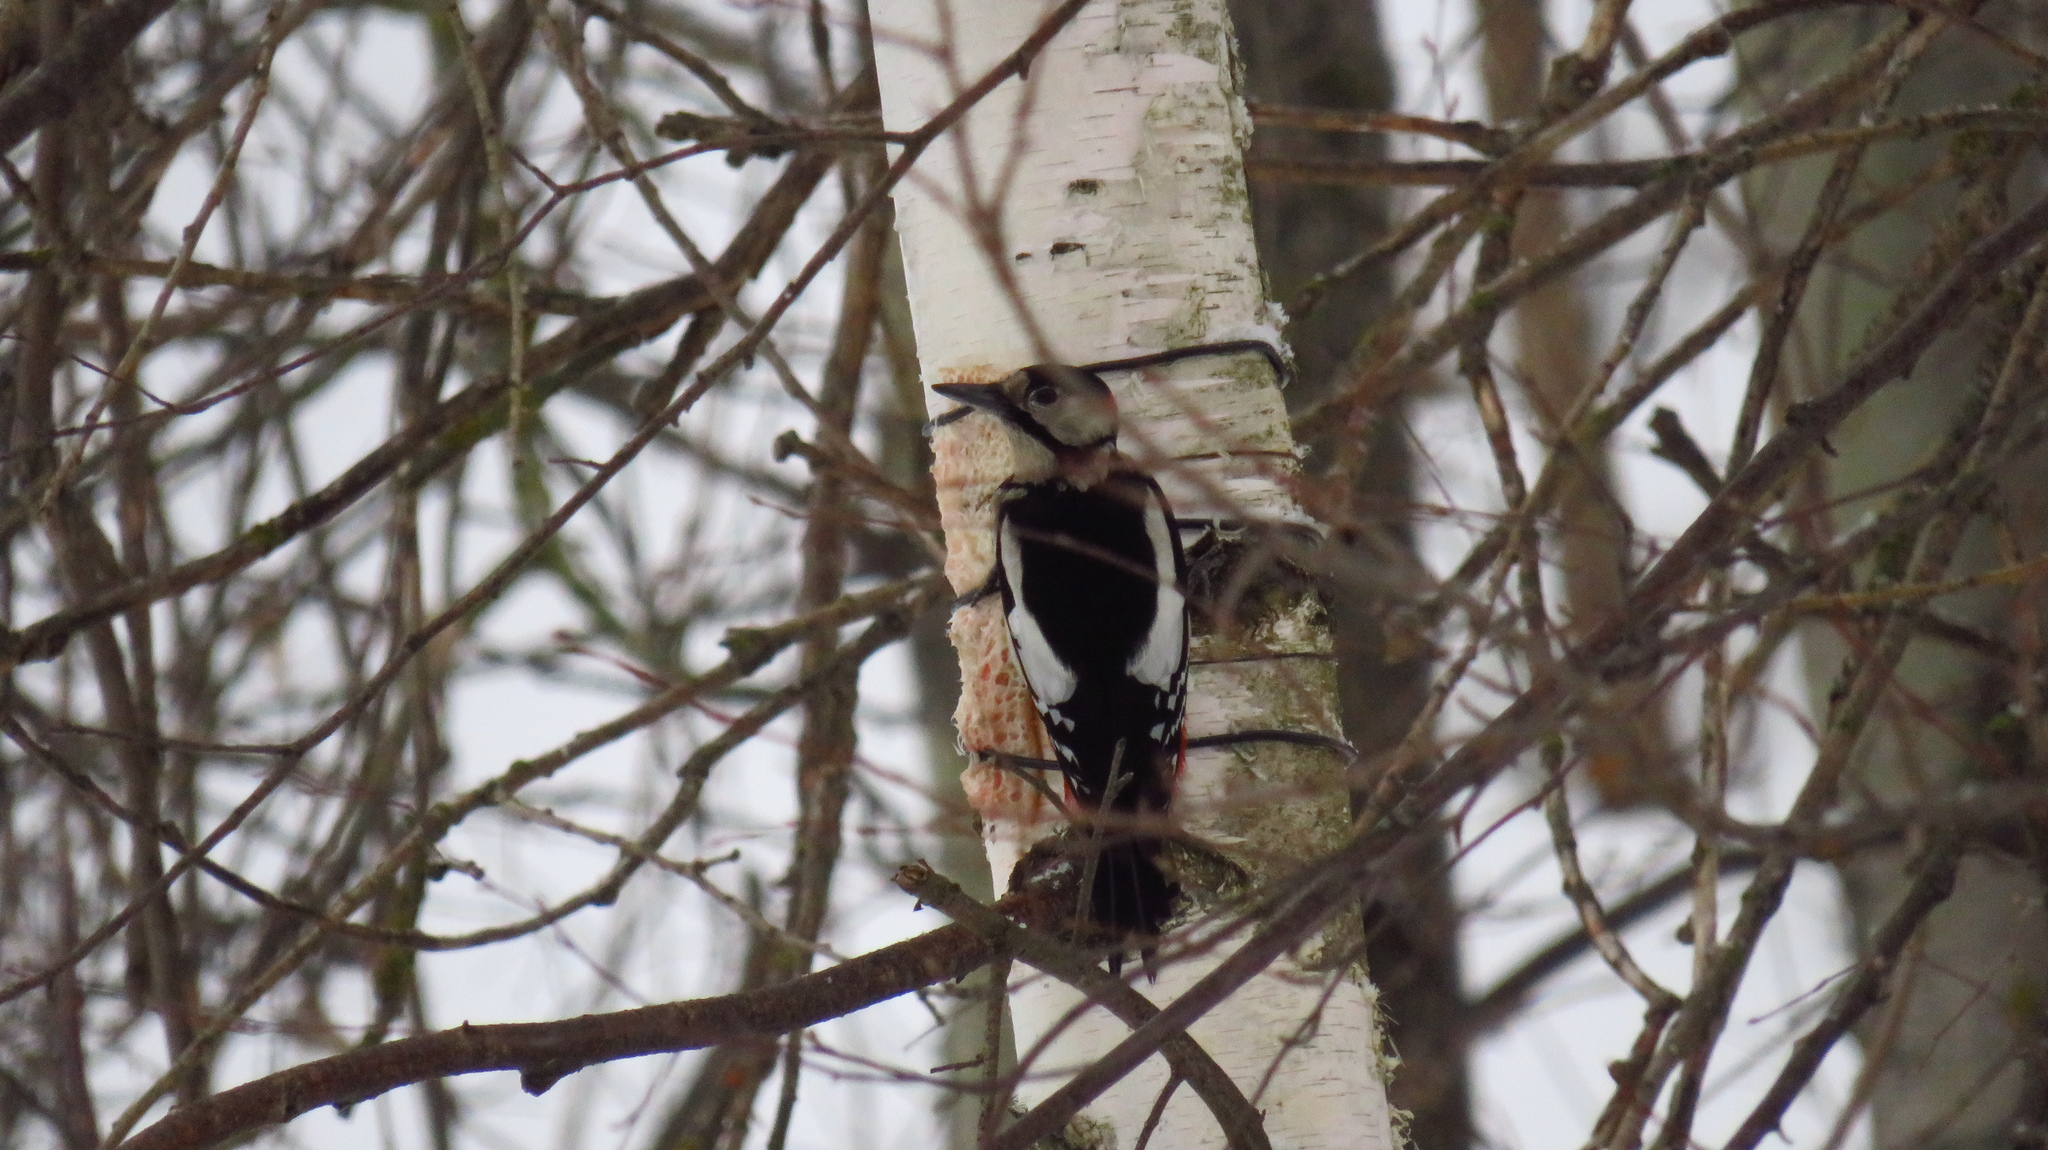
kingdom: Animalia
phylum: Chordata
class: Aves
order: Piciformes
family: Picidae
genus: Dendrocopos
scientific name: Dendrocopos major
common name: Great spotted woodpecker
